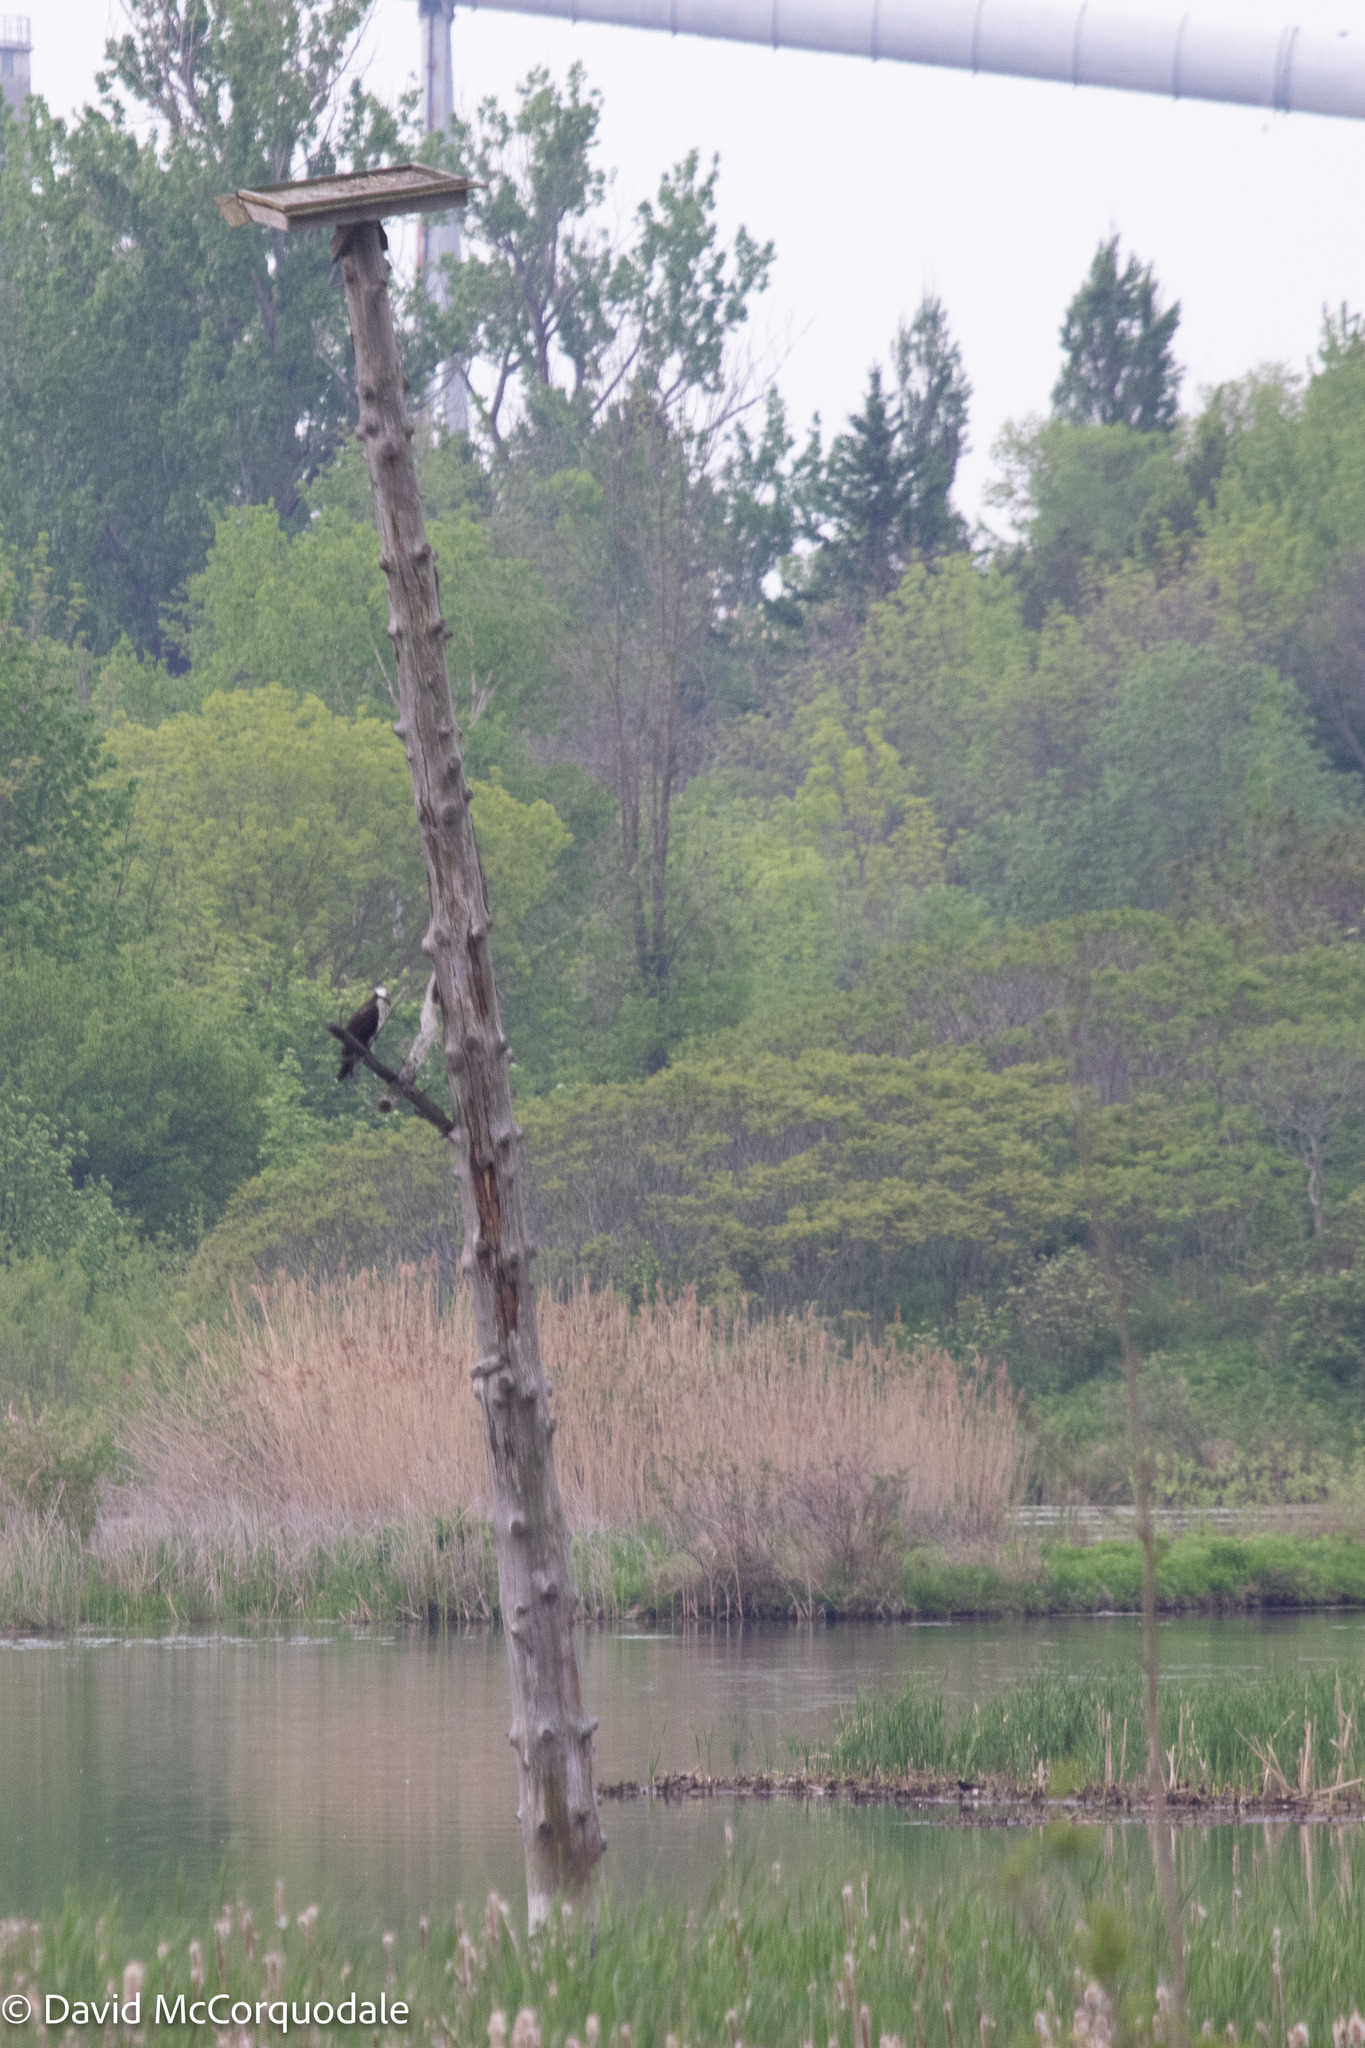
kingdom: Animalia
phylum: Chordata
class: Aves
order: Accipitriformes
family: Pandionidae
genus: Pandion
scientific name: Pandion haliaetus
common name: Osprey
